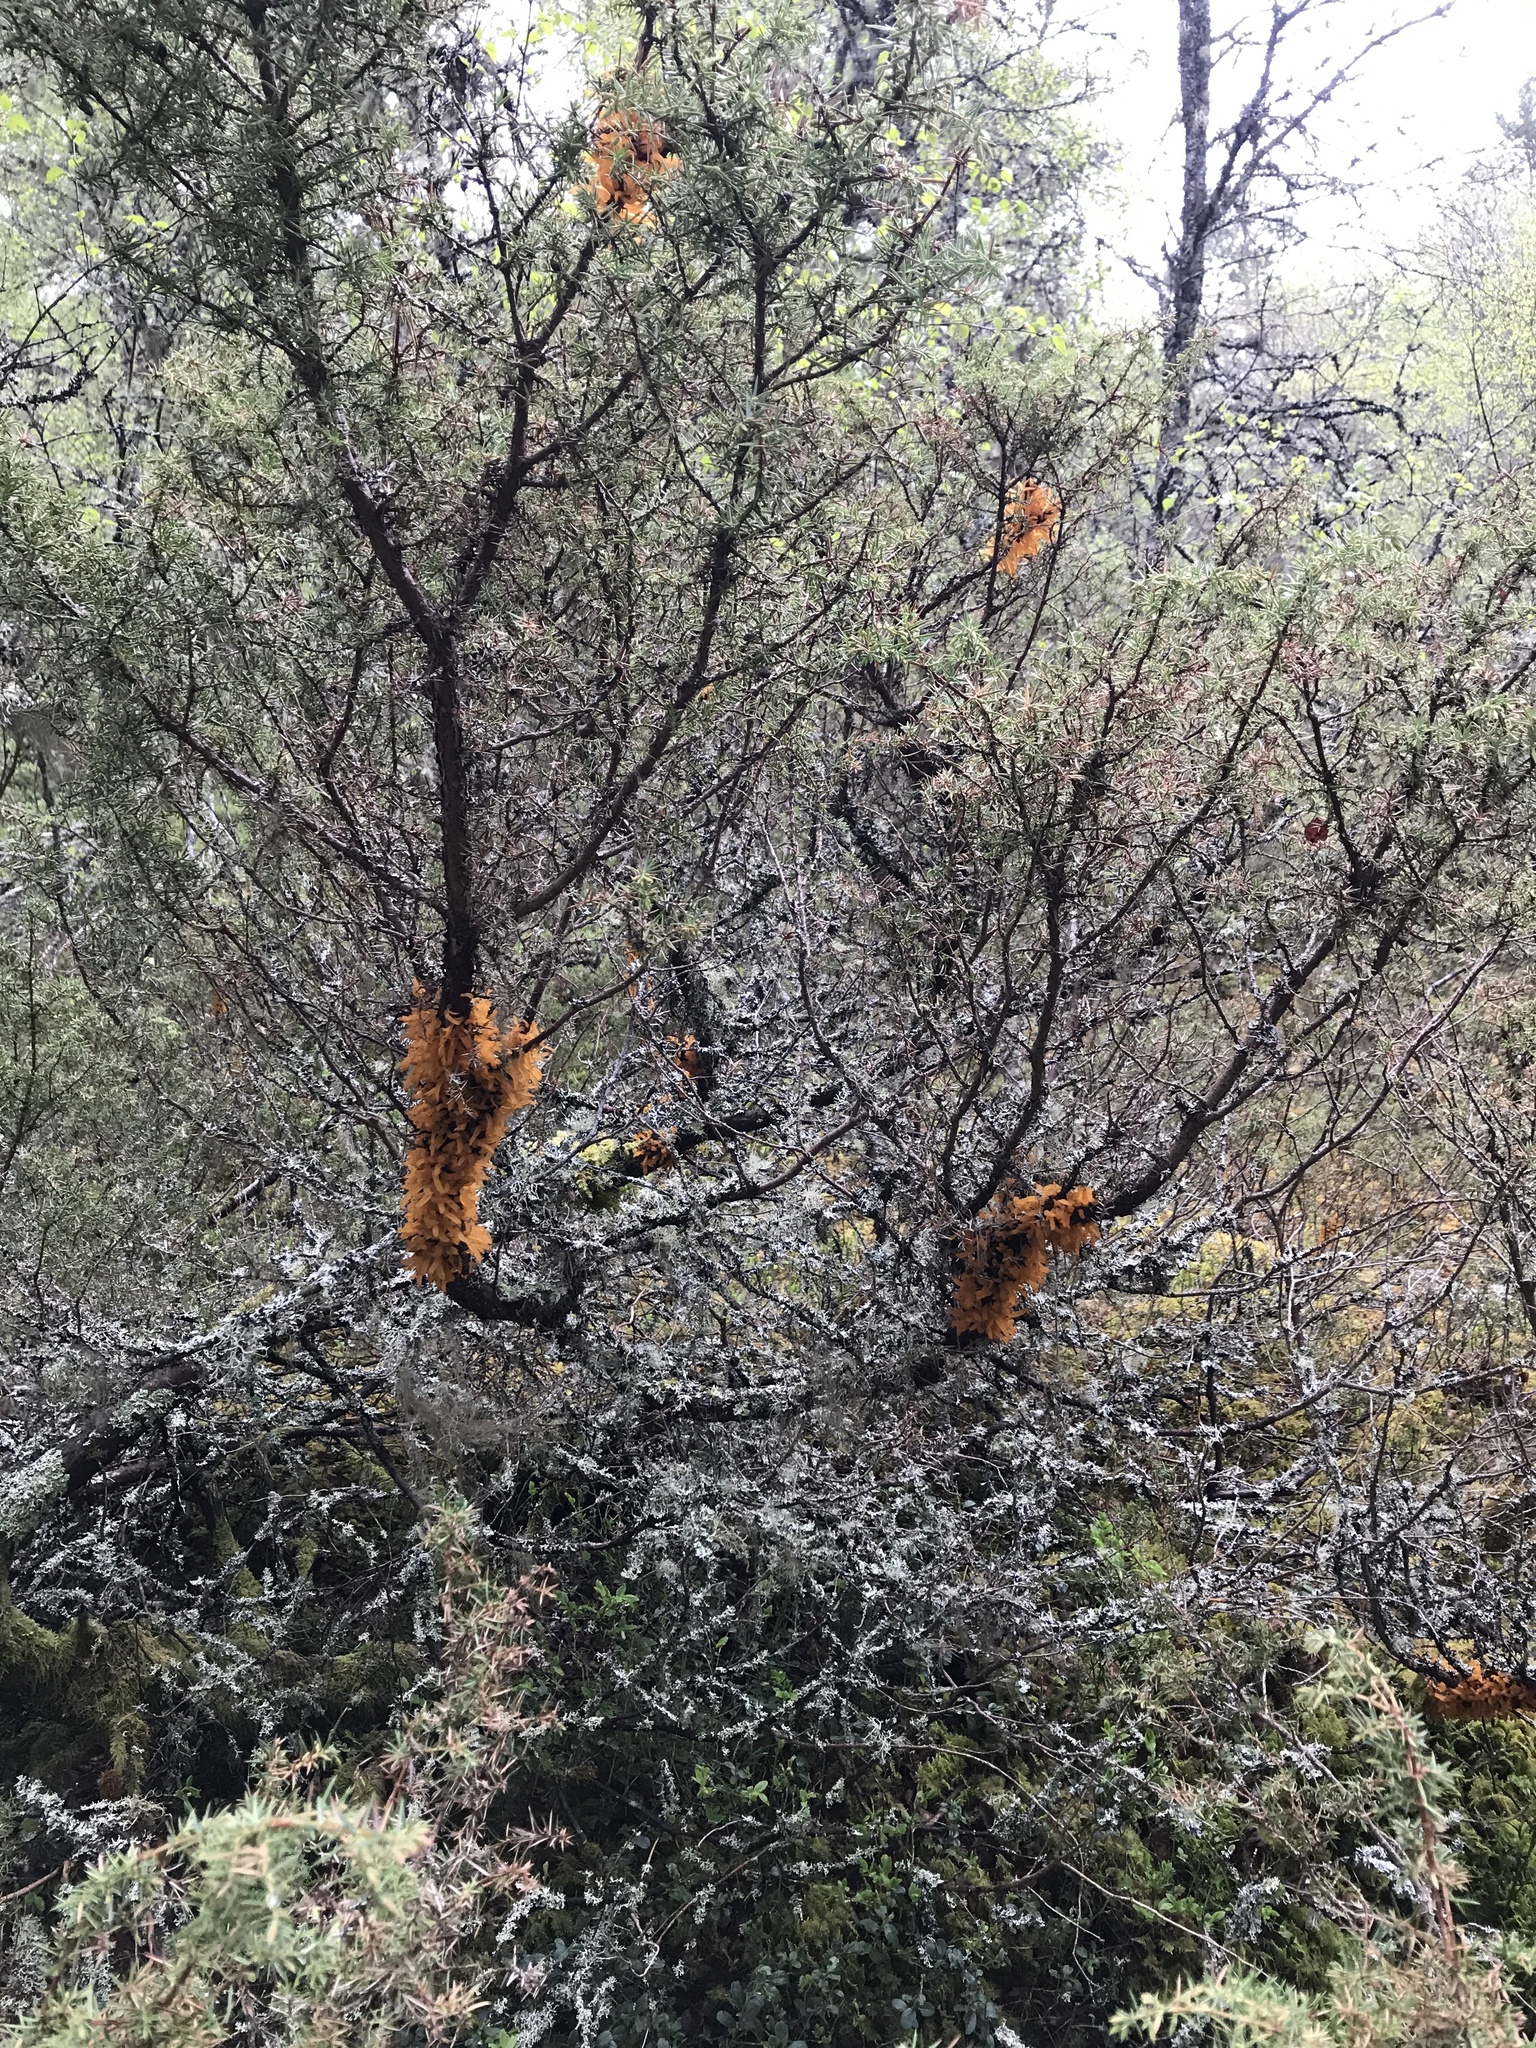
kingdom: Fungi
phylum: Basidiomycota
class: Pucciniomycetes
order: Pucciniales
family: Gymnosporangiaceae
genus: Gymnosporangium
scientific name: Gymnosporangium clavariiforme
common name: Tongues of fire
